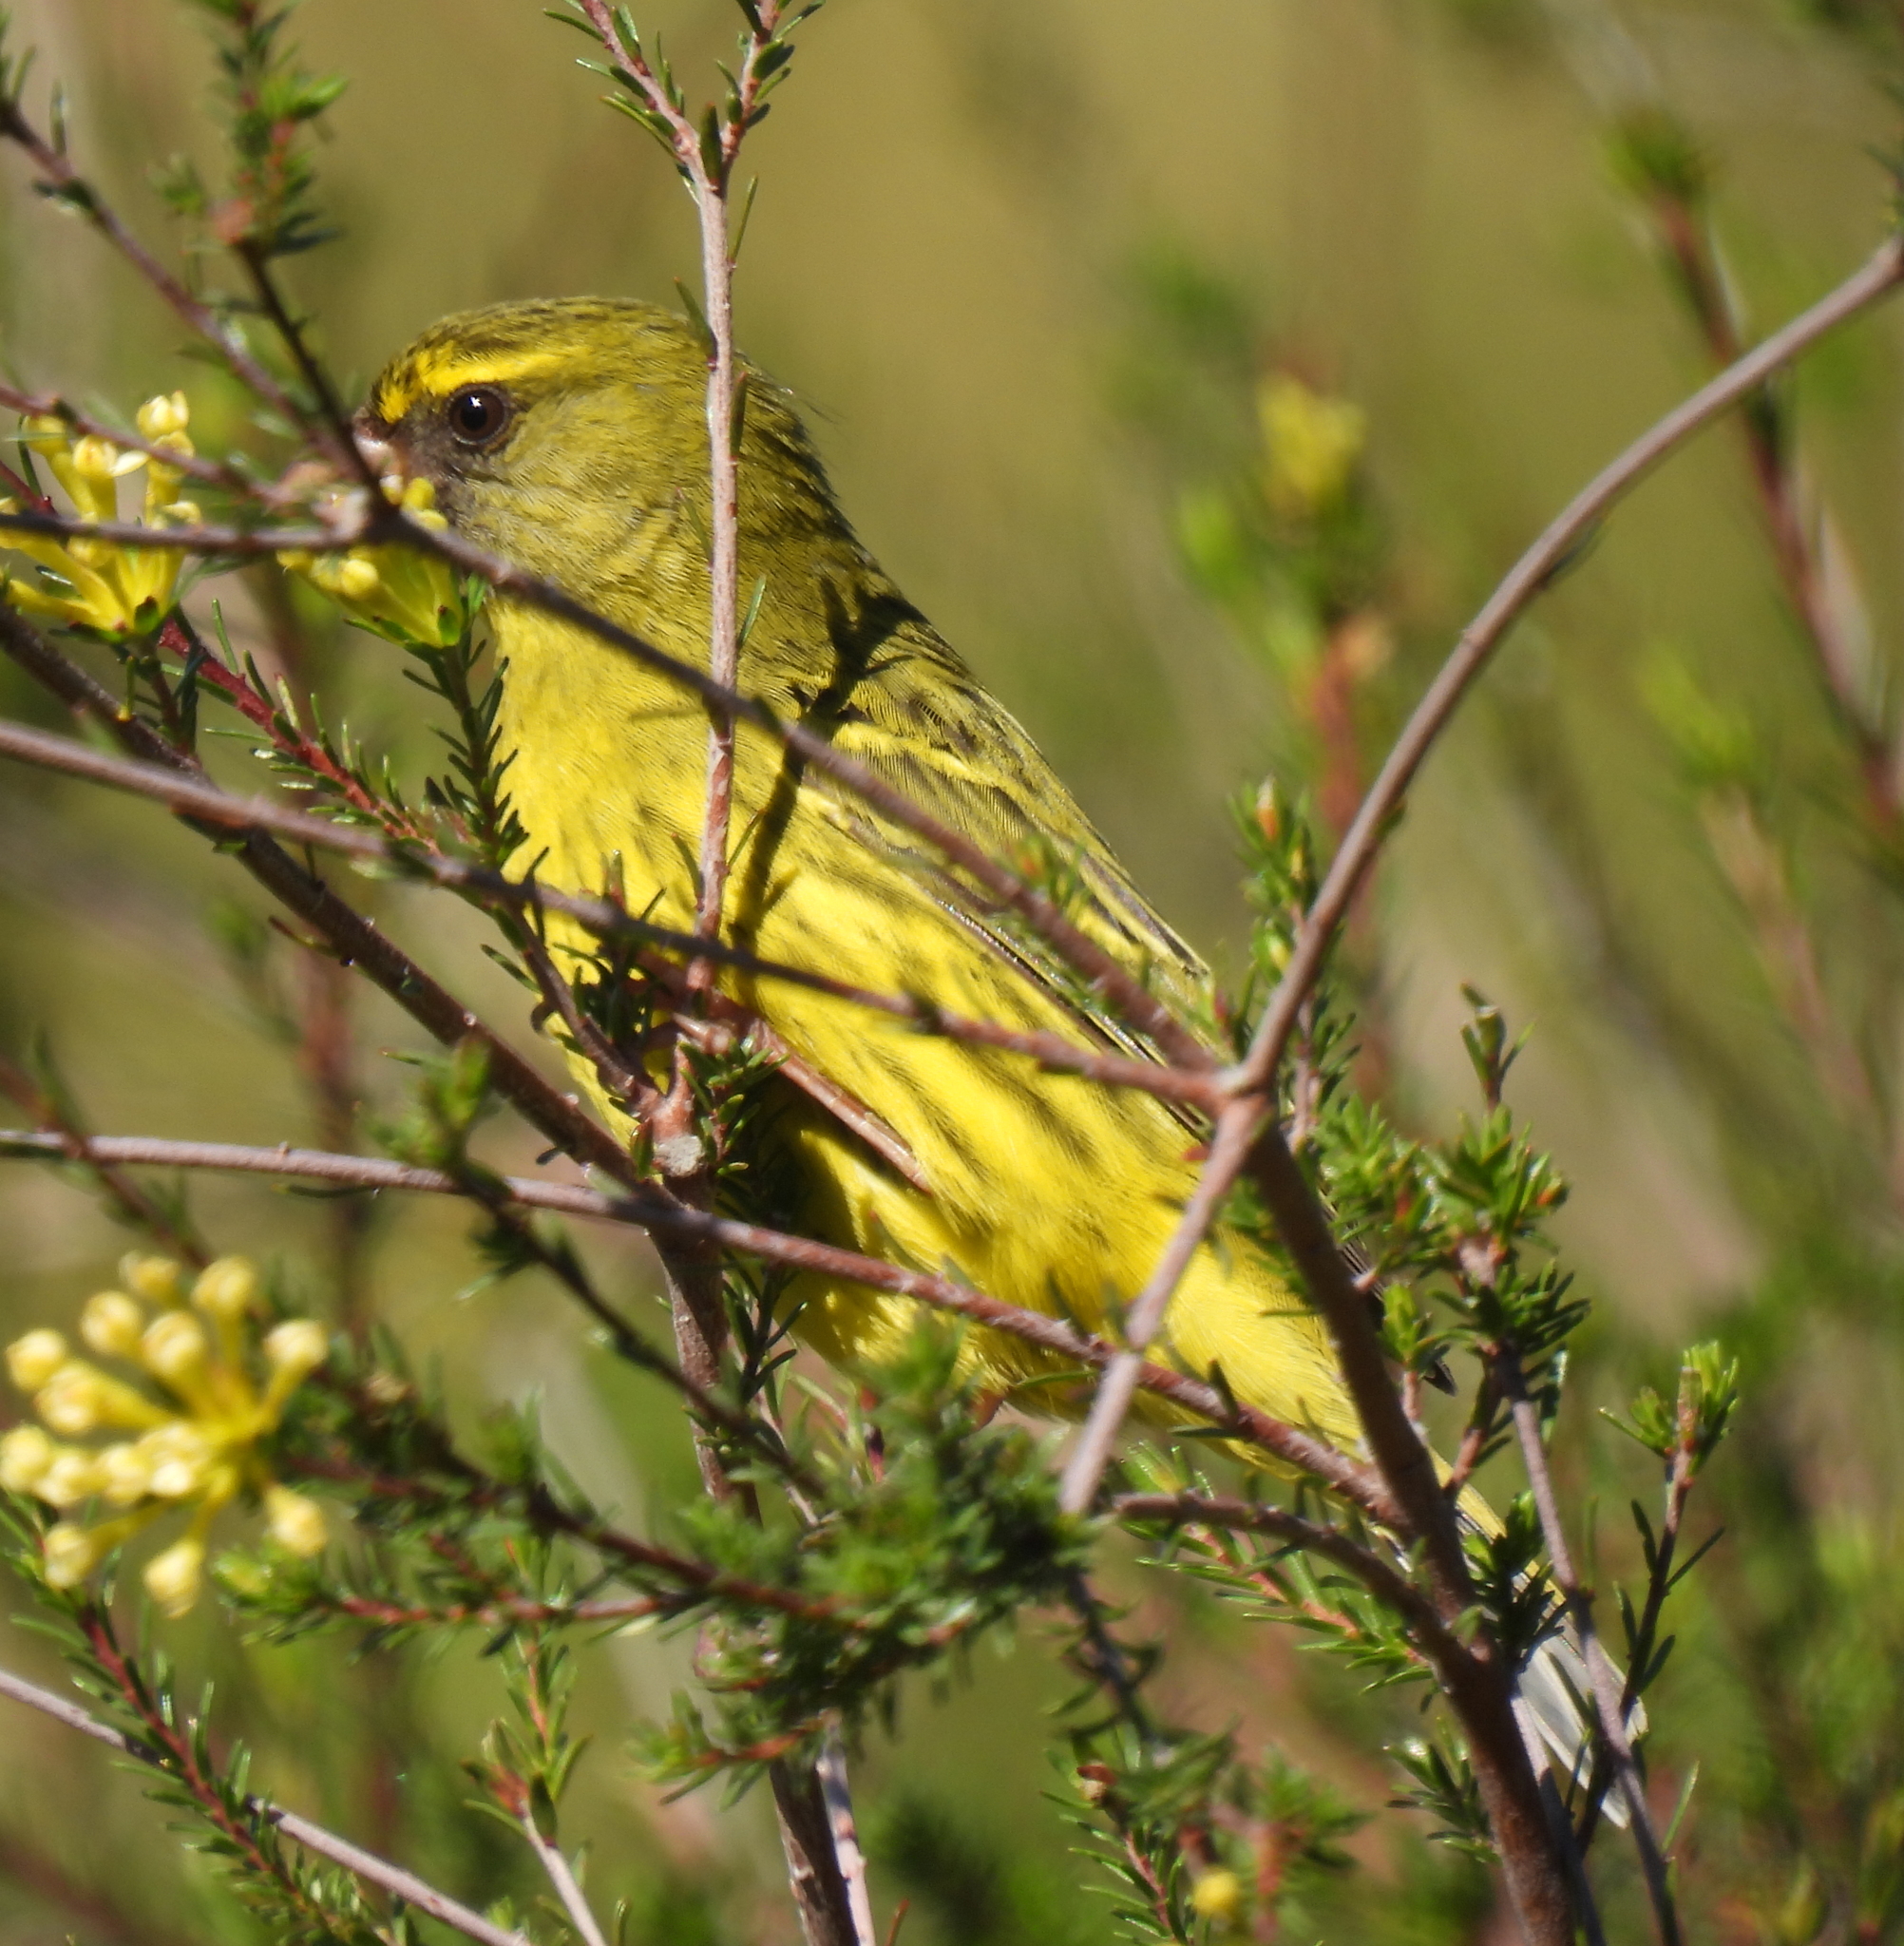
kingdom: Animalia
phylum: Chordata
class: Aves
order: Passeriformes
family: Fringillidae
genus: Crithagra
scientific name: Crithagra scotops
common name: Forest canary
